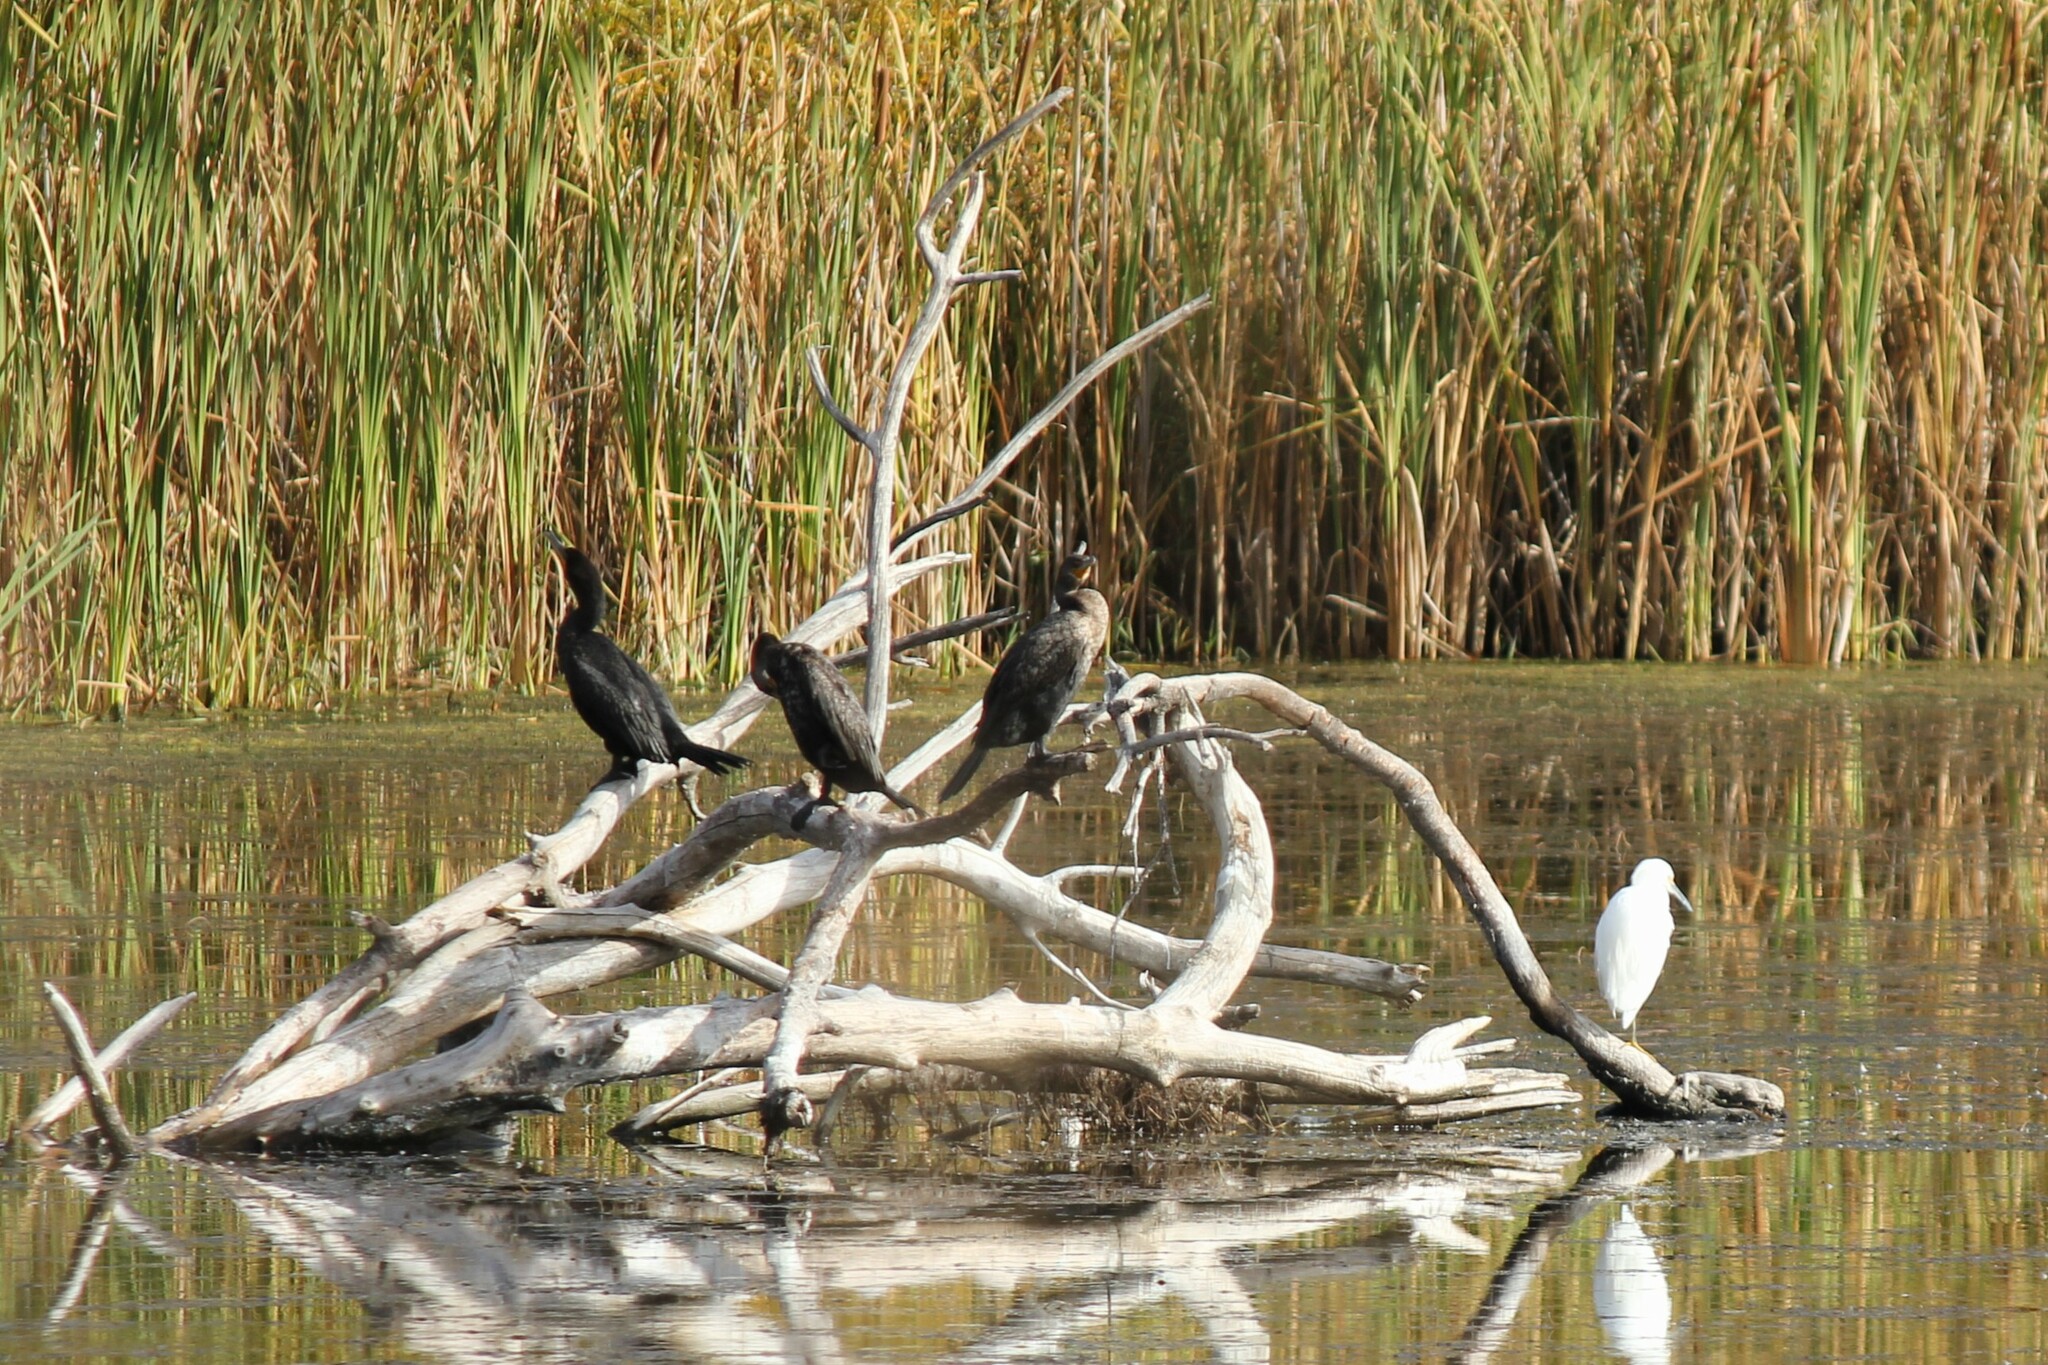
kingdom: Animalia
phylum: Chordata
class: Aves
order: Pelecaniformes
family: Ardeidae
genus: Egretta
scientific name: Egretta thula
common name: Snowy egret
